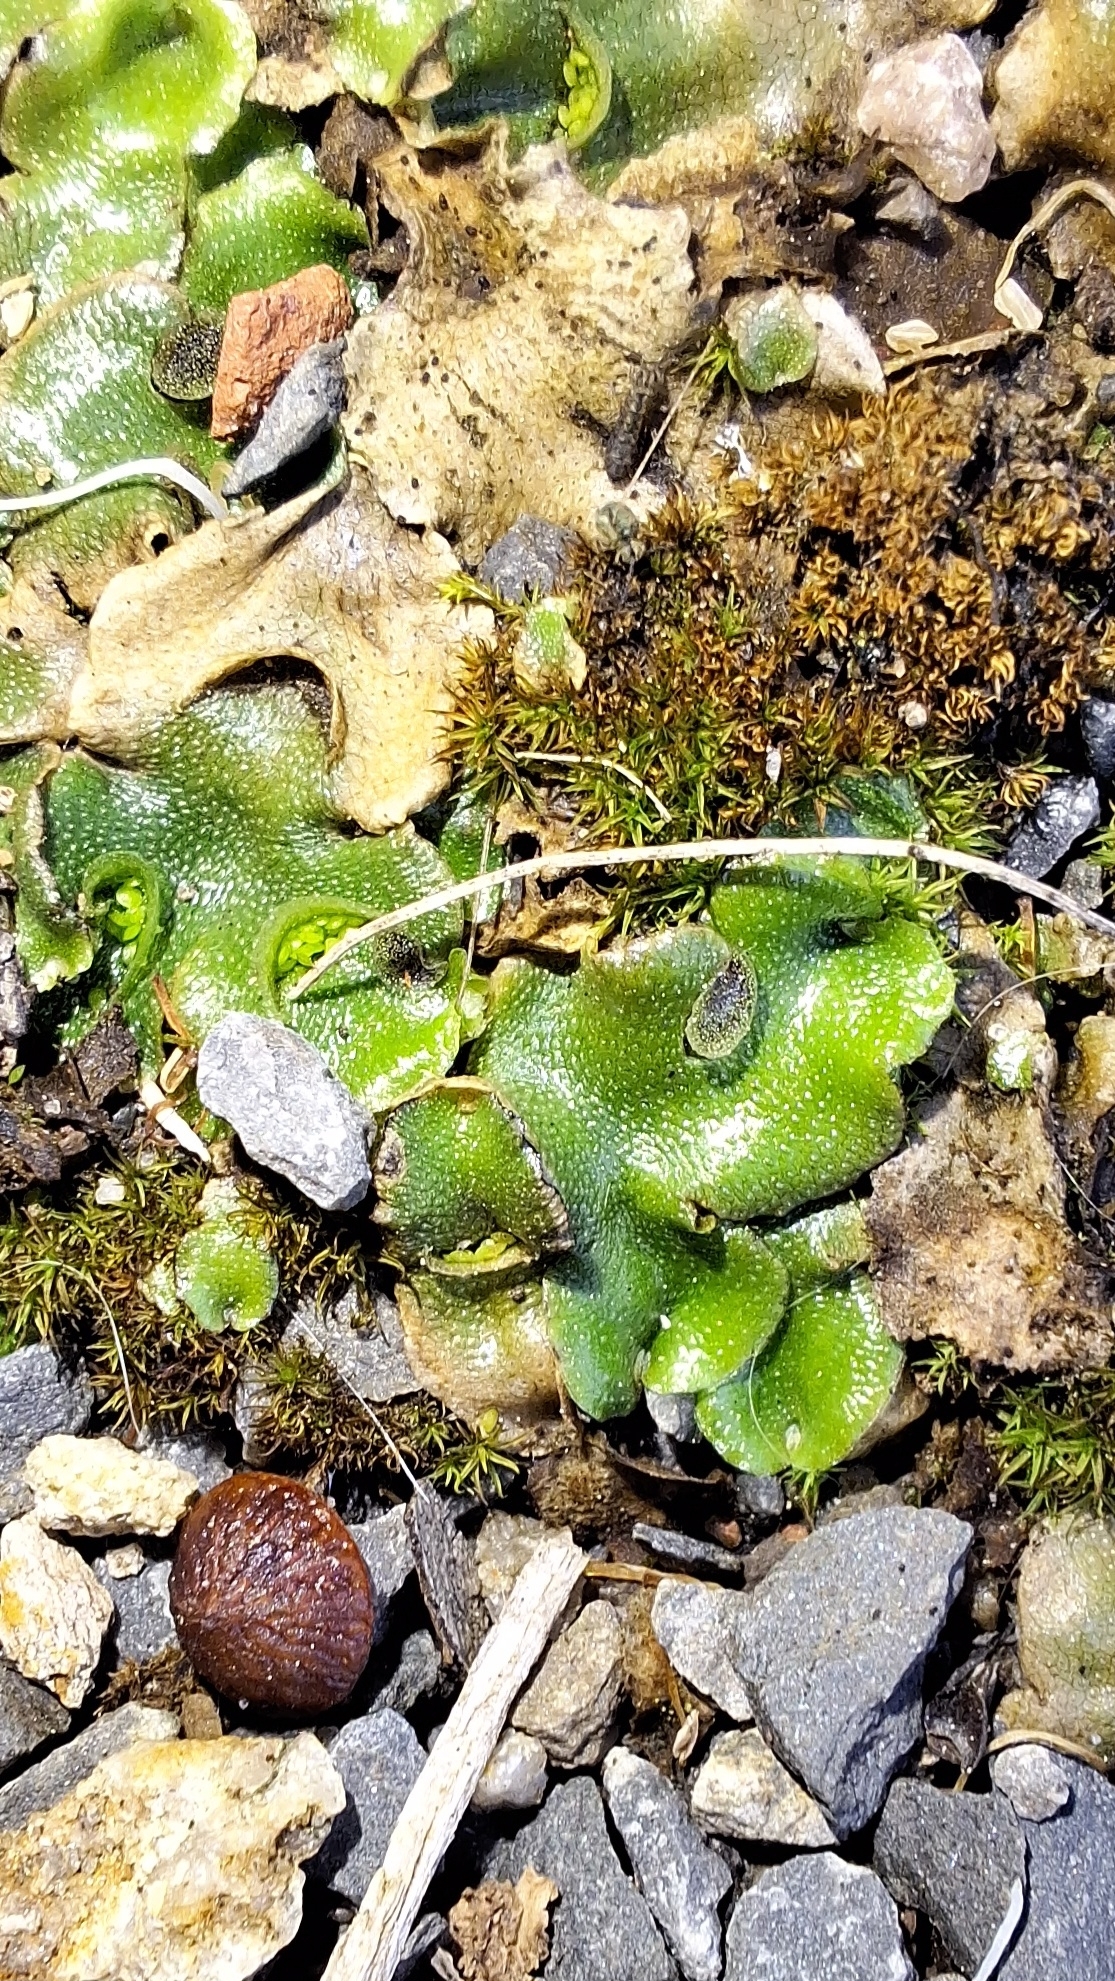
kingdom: Plantae
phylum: Marchantiophyta
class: Marchantiopsida
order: Lunulariales
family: Lunulariaceae
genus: Lunularia
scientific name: Lunularia cruciata
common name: Crescent-cup liverwort
